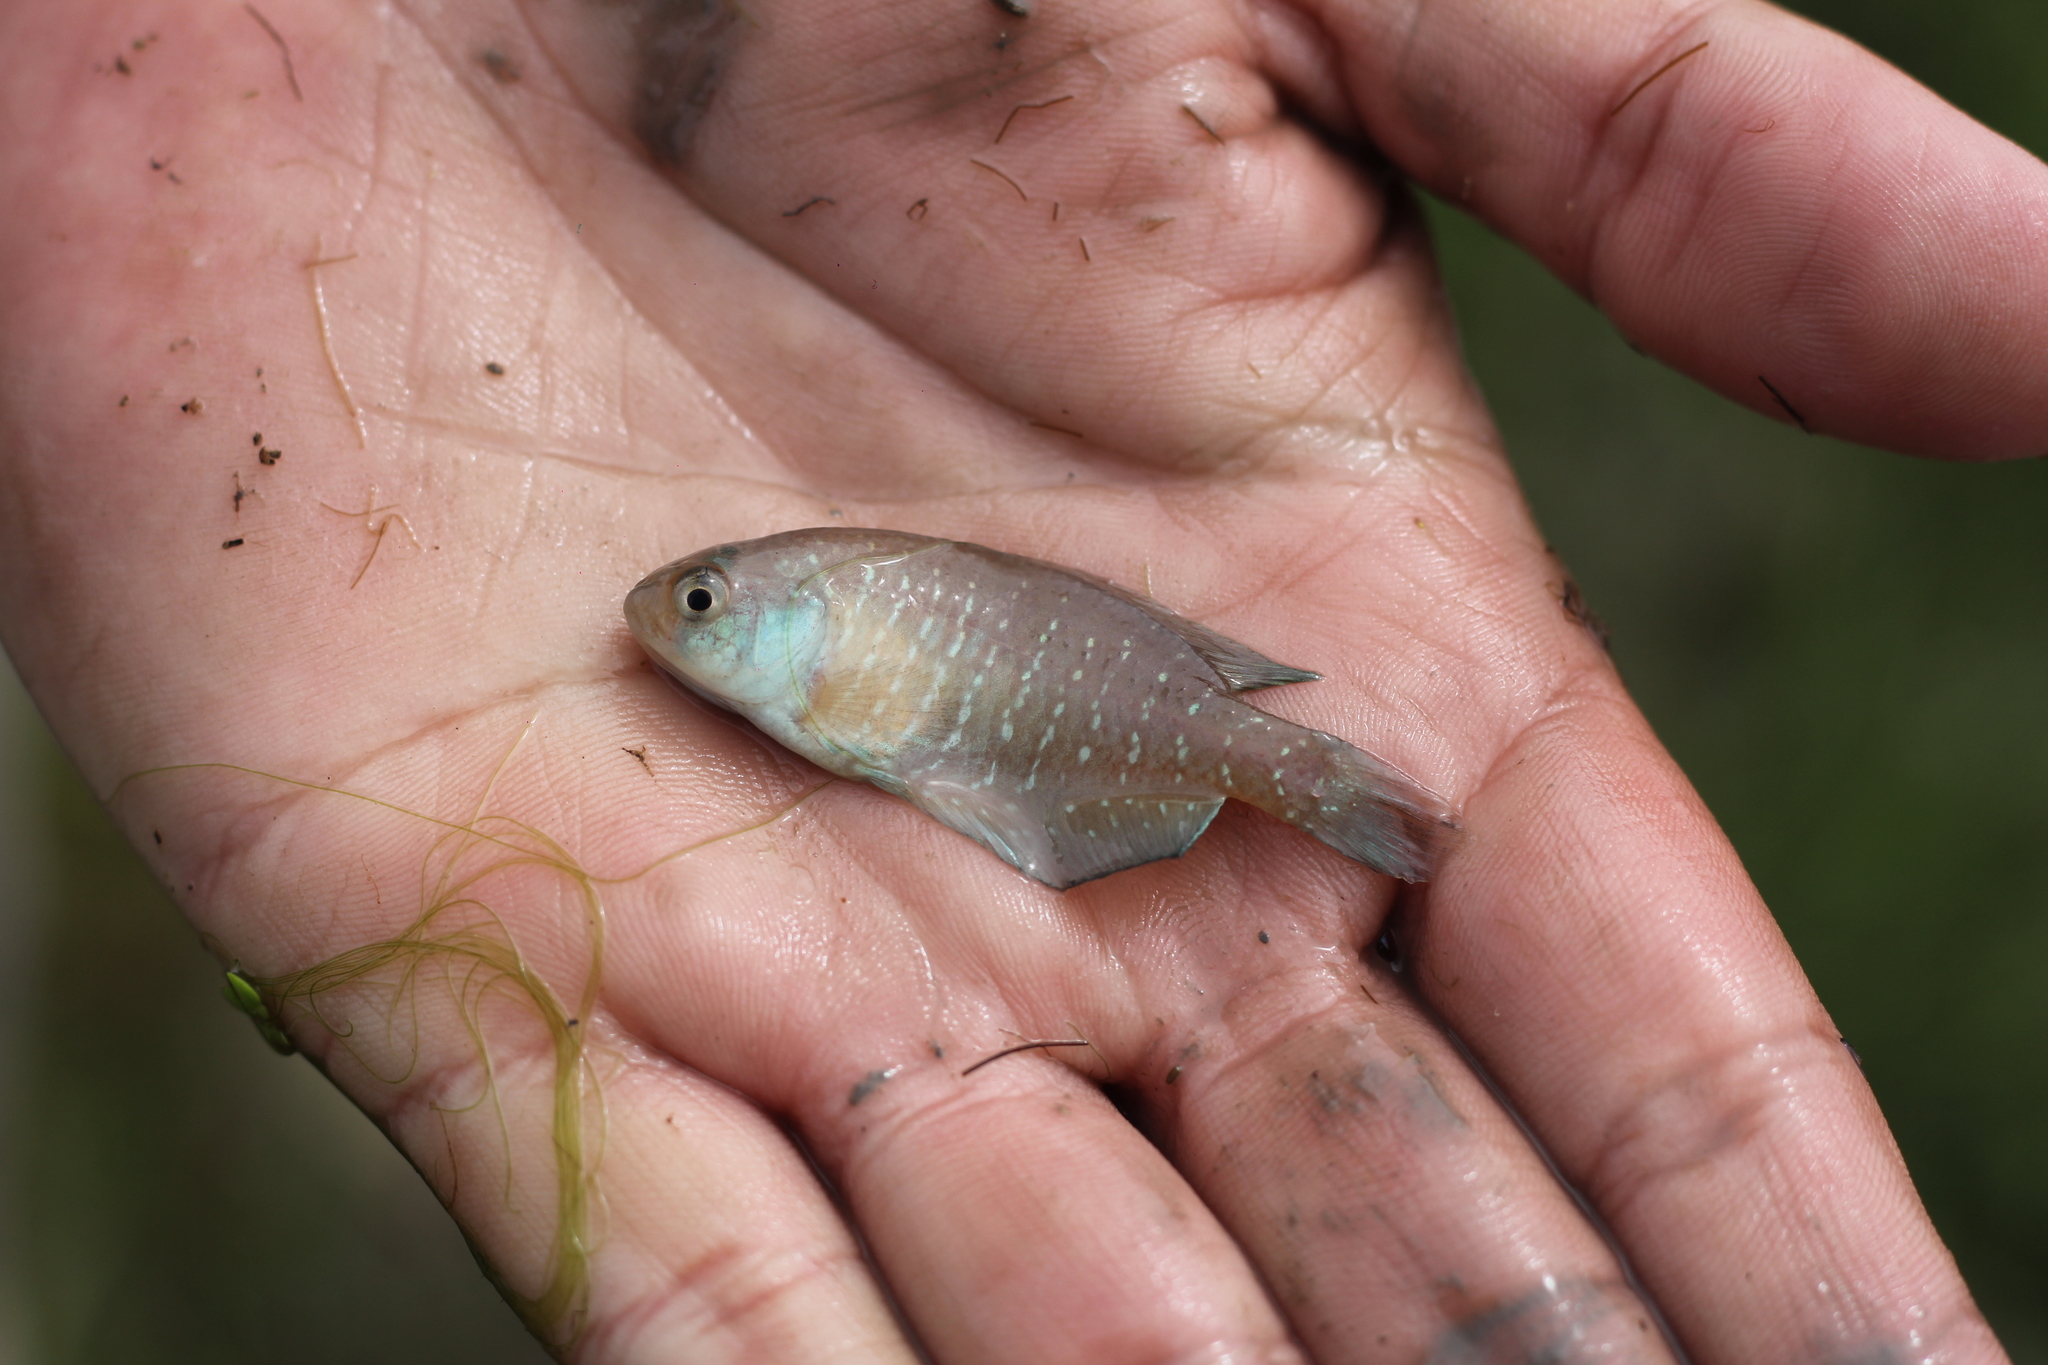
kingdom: Animalia
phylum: Chordata
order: Cyprinodontiformes
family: Rivulidae
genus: Austrolebias
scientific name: Austrolebias bellottii
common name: Argentine pearlfish
